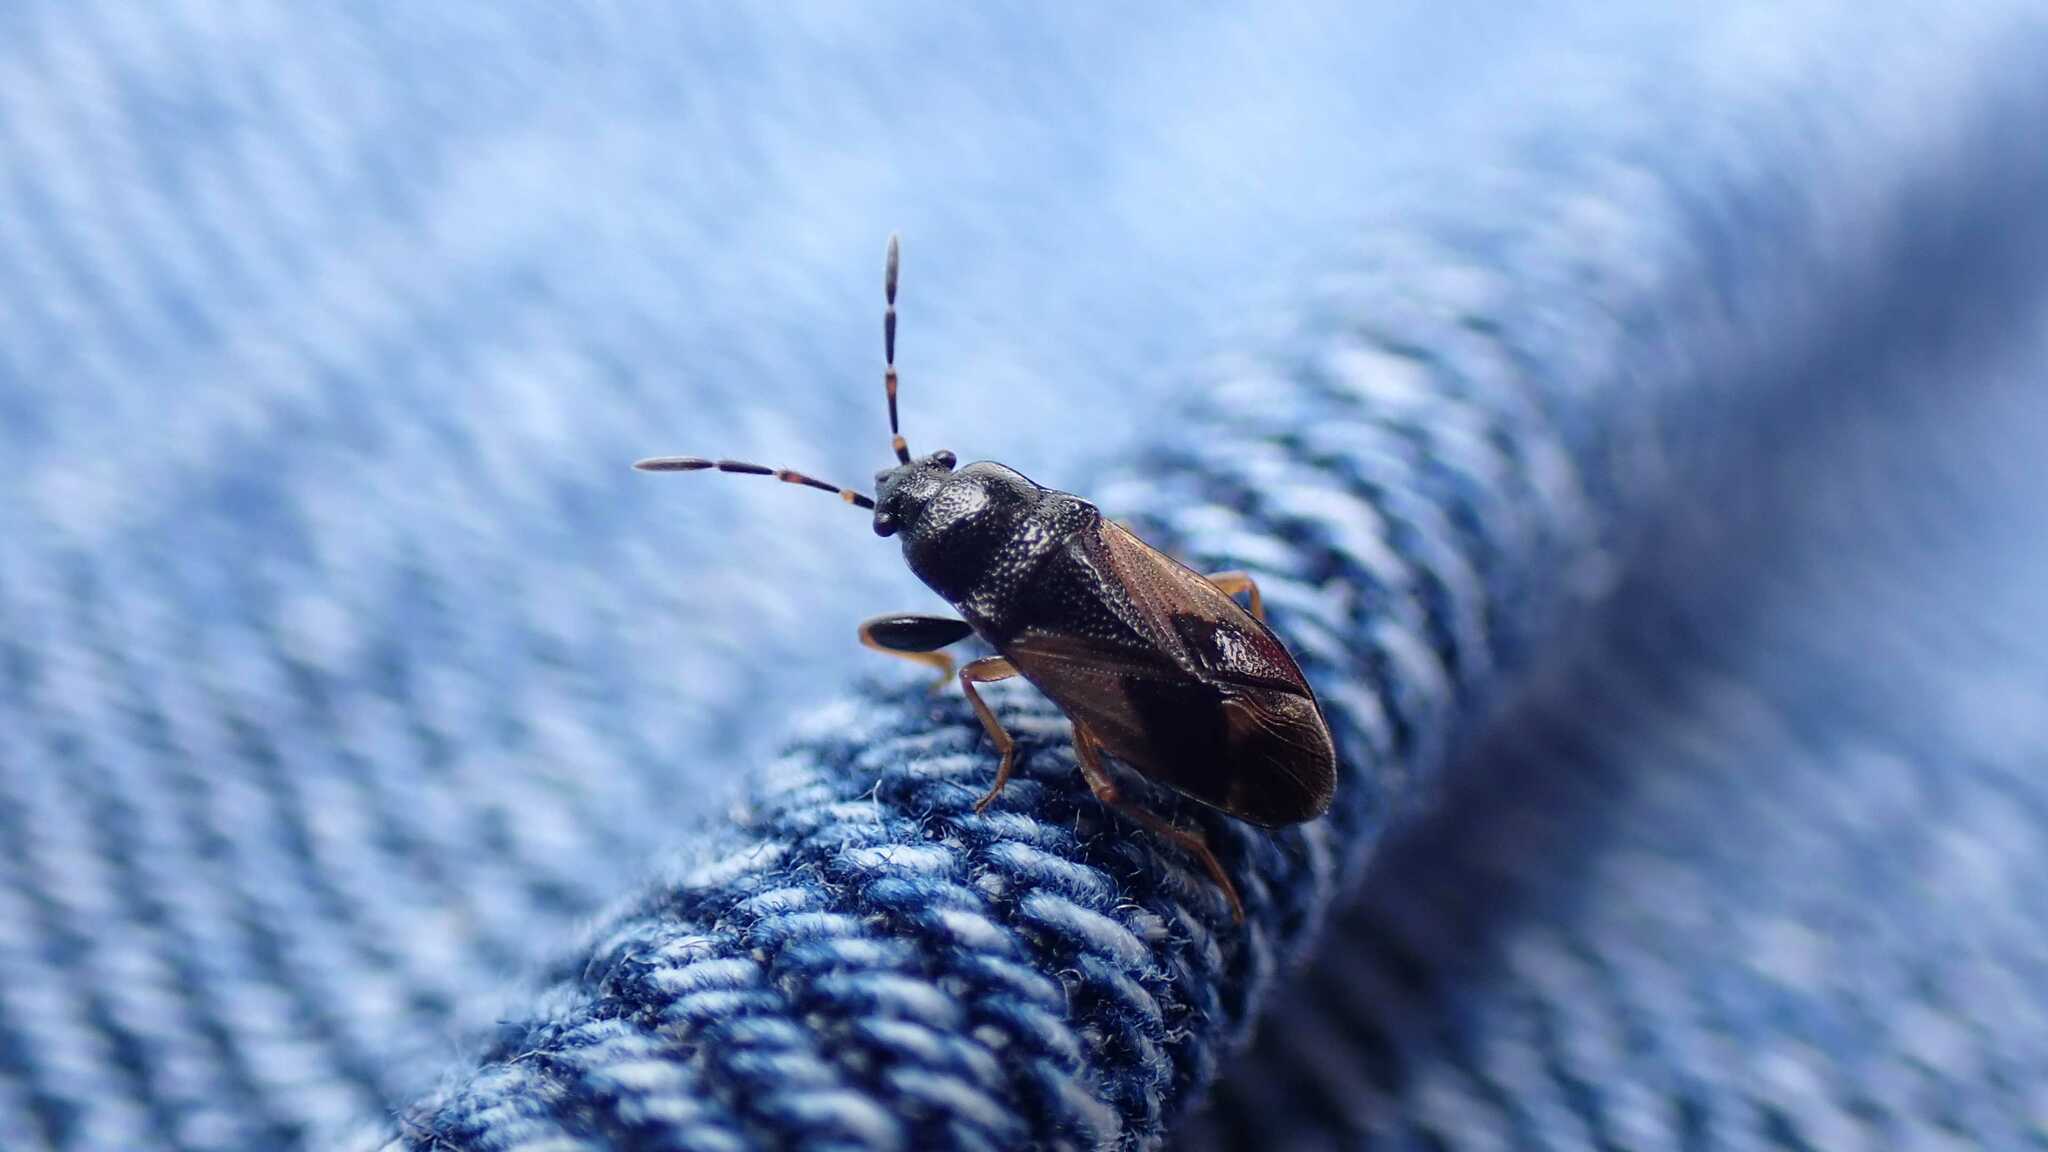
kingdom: Animalia
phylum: Arthropoda
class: Insecta
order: Hemiptera
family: Rhyparochromidae
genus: Megalonotus
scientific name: Megalonotus praetextatus
